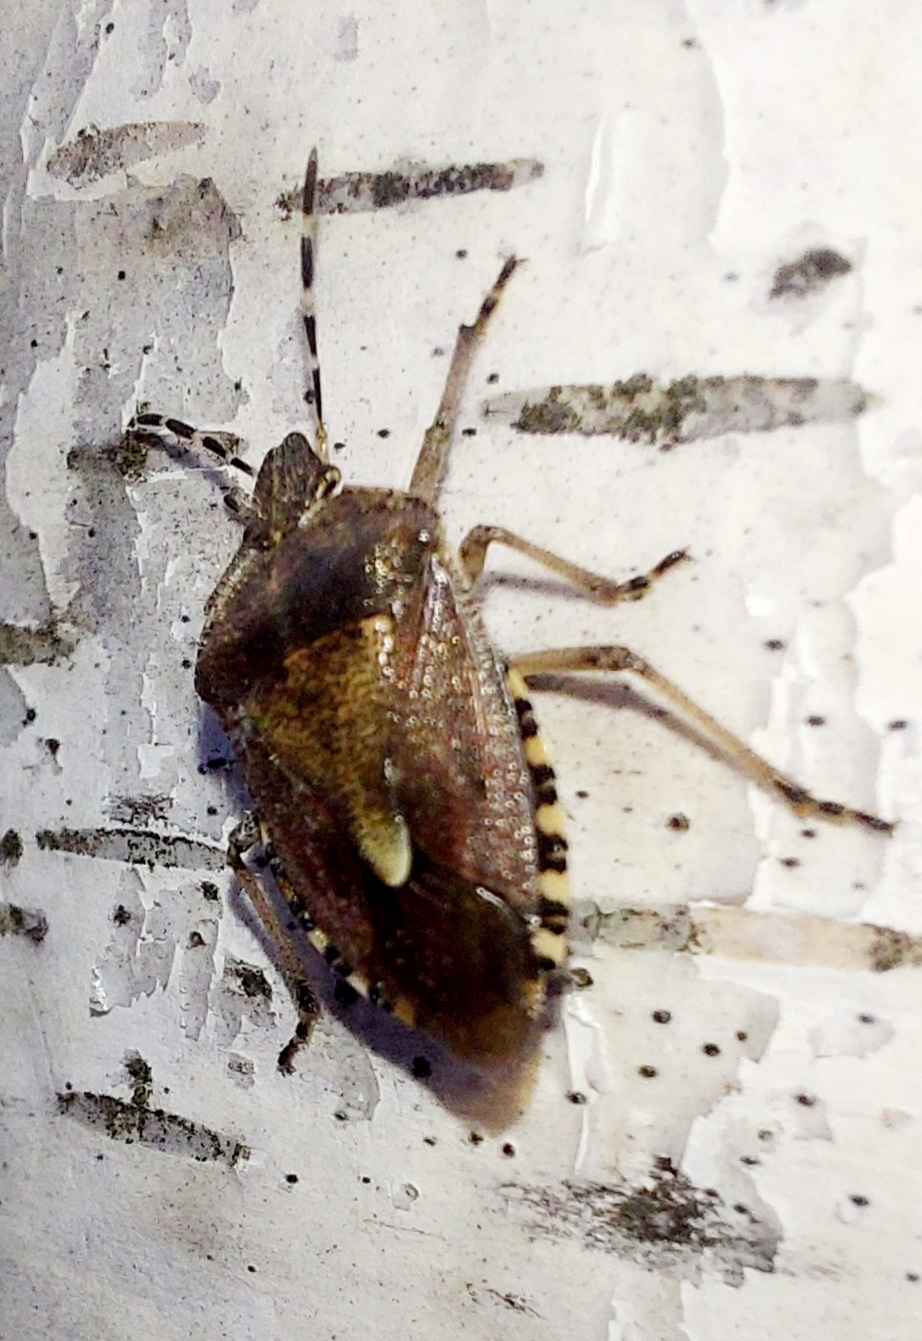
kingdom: Animalia
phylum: Arthropoda
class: Insecta
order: Hemiptera
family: Pentatomidae
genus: Dolycoris
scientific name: Dolycoris baccarum
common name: Sloe bug
